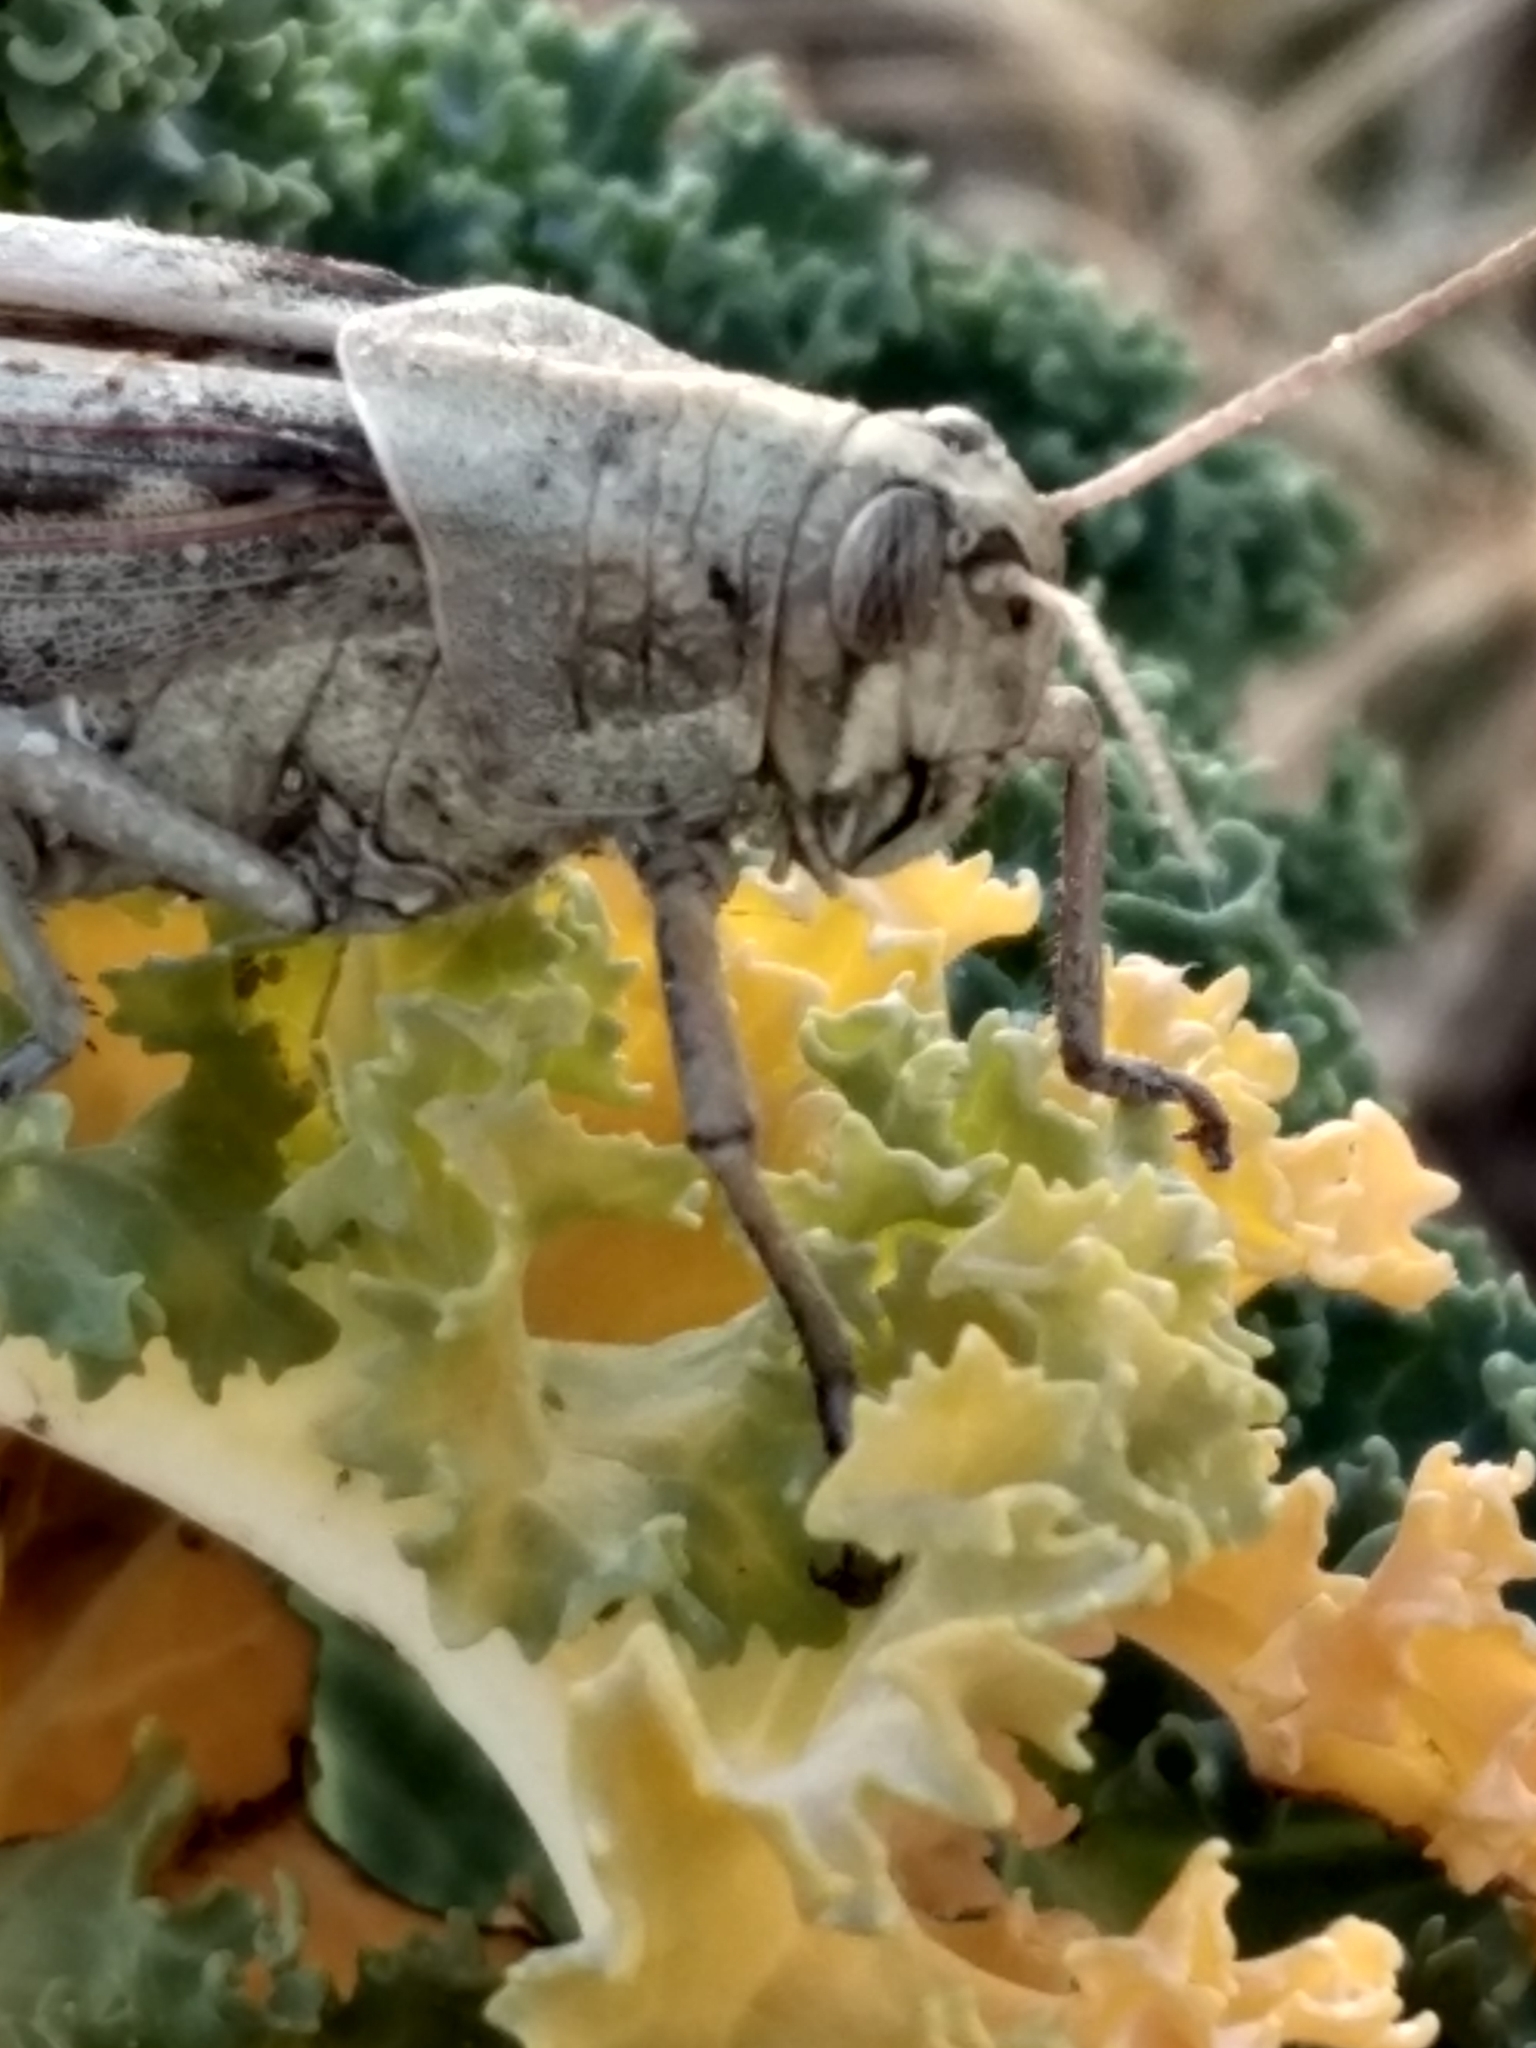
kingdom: Animalia
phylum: Arthropoda
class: Insecta
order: Orthoptera
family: Acrididae
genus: Schistocerca
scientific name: Schistocerca nitens
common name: Vagrant grasshopper
